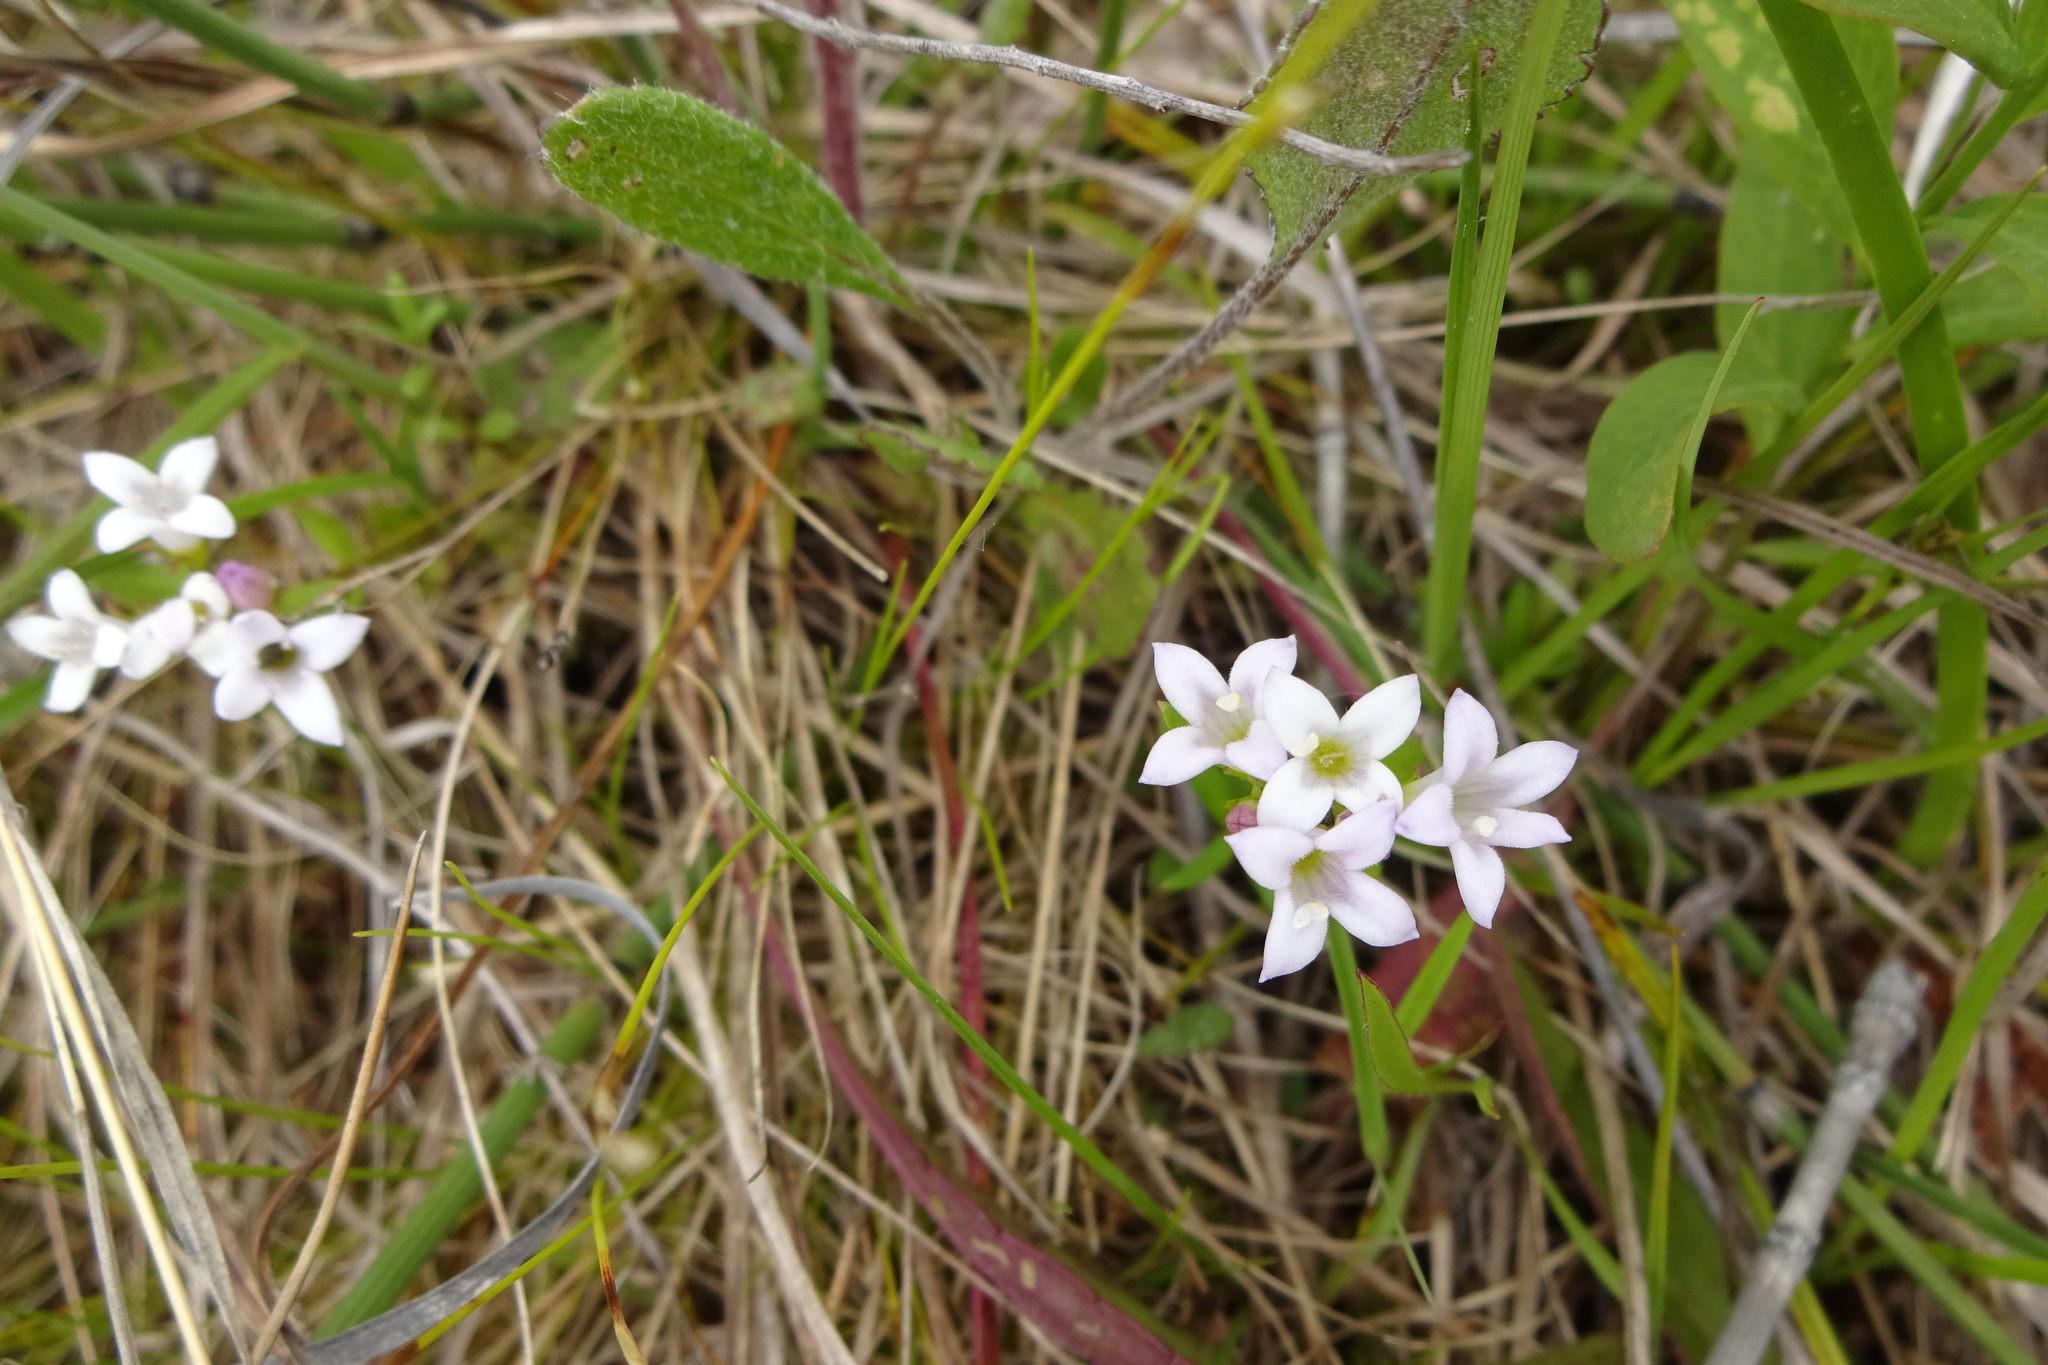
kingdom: Plantae
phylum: Tracheophyta
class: Magnoliopsida
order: Gentianales
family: Rubiaceae
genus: Houstonia
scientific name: Houstonia longifolia
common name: Long-leaved bluets
